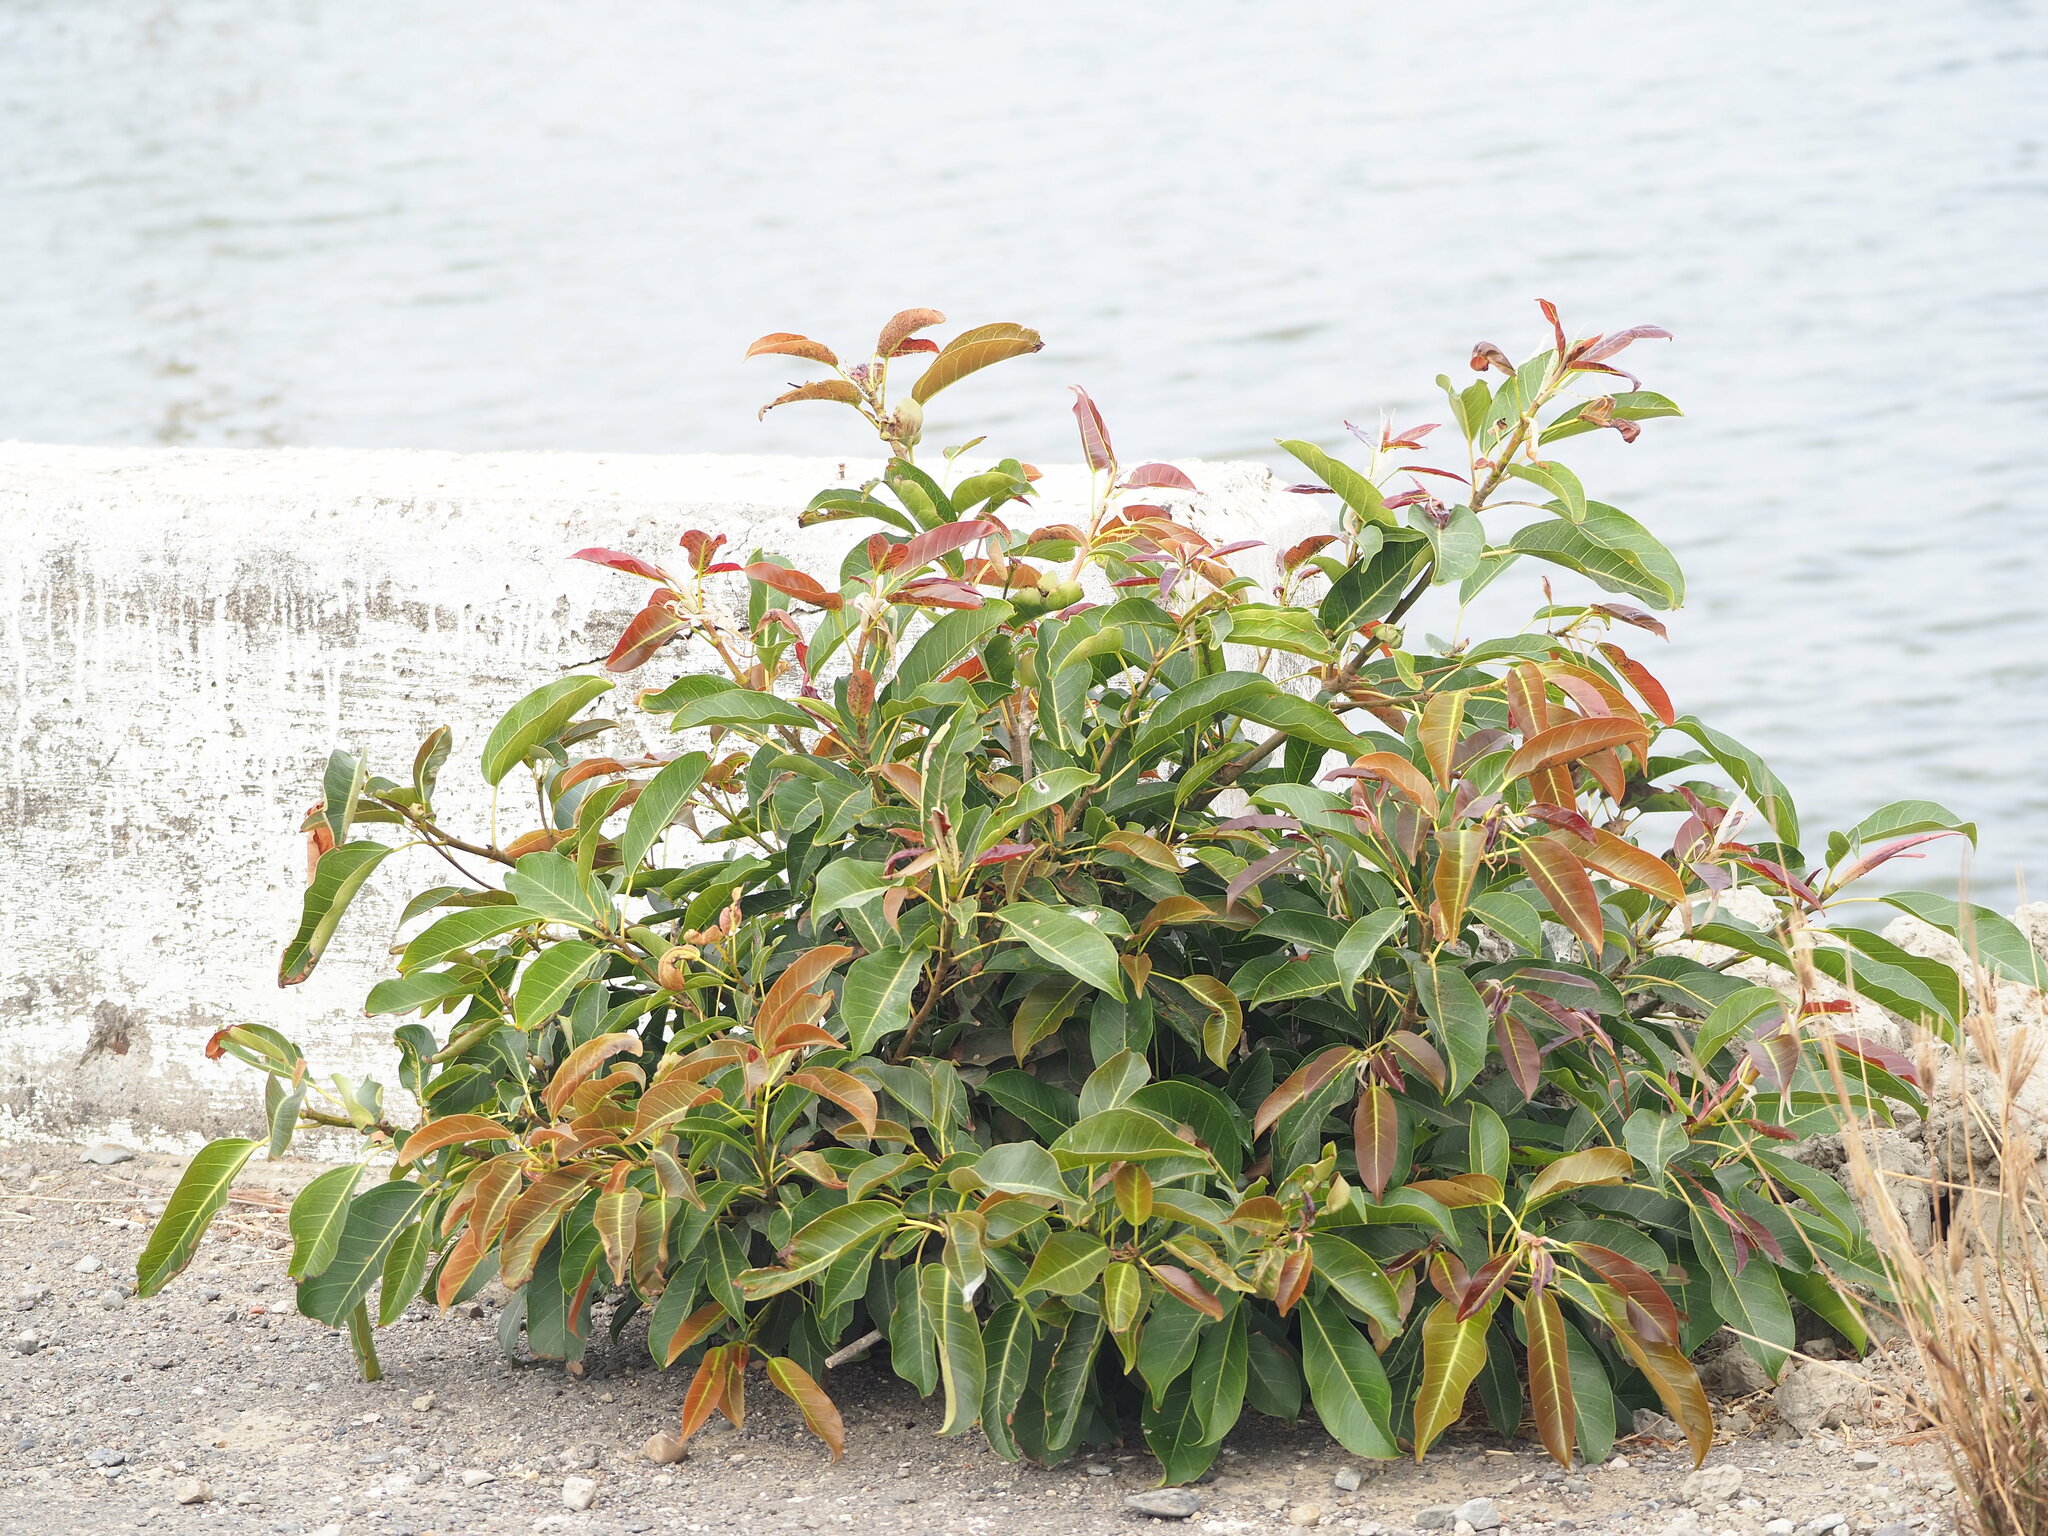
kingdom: Plantae
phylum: Tracheophyta
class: Magnoliopsida
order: Rosales
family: Moraceae
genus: Ficus
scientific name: Ficus subpisocarpa
